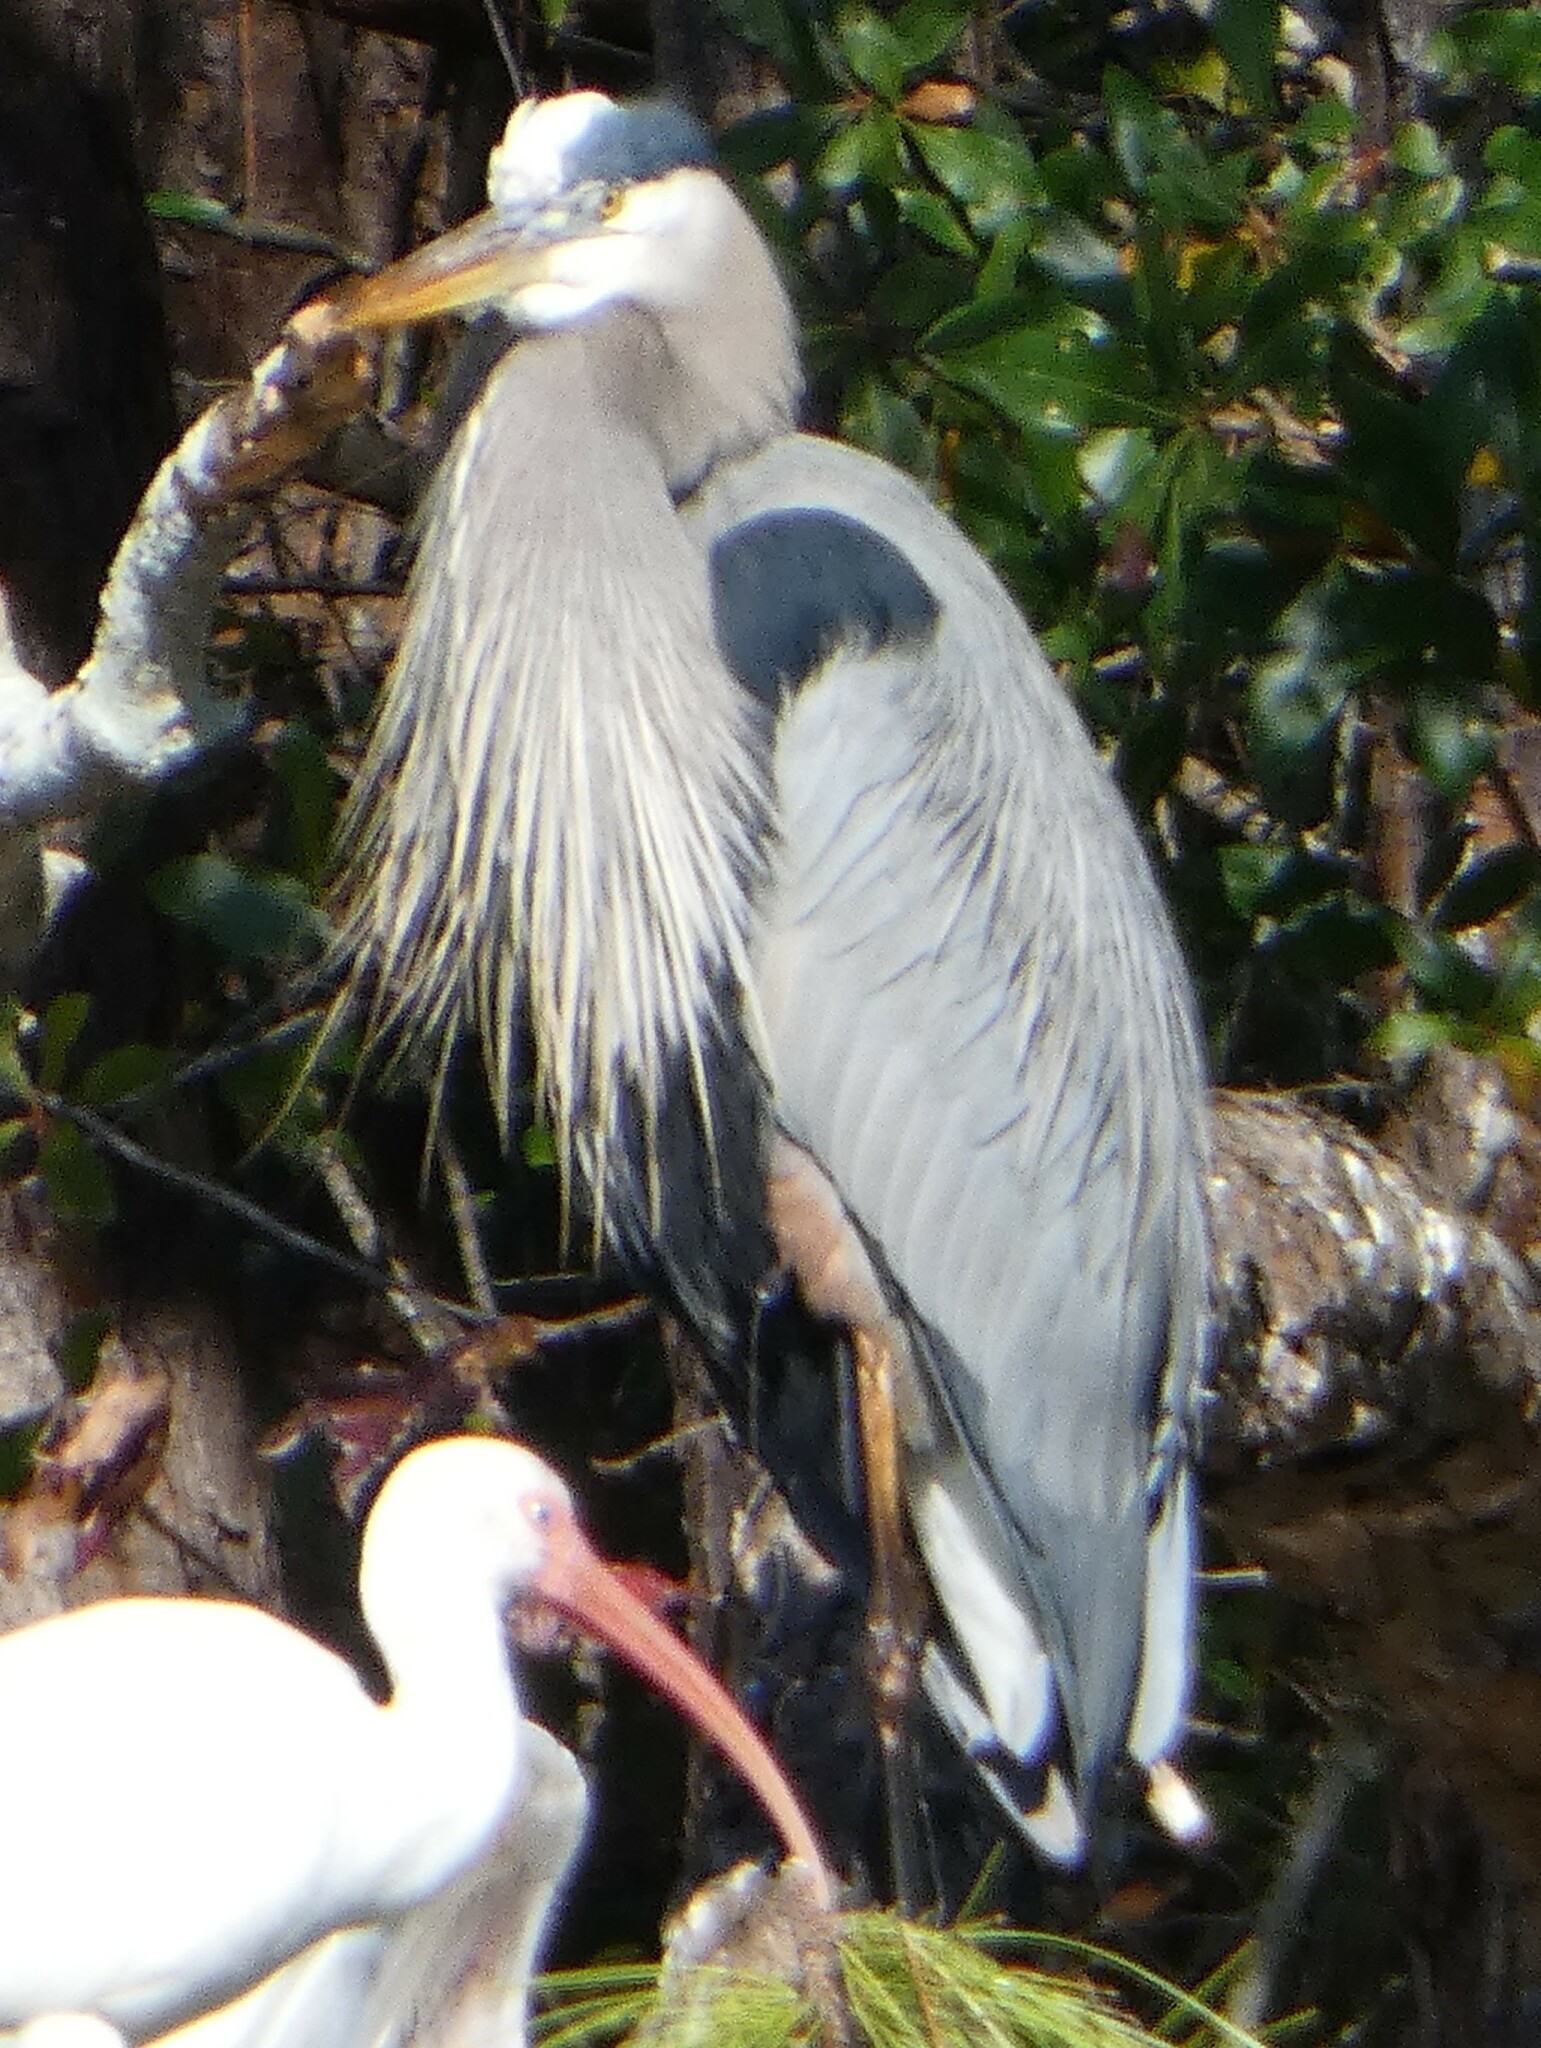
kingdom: Animalia
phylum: Chordata
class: Aves
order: Pelecaniformes
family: Ardeidae
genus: Ardea
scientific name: Ardea herodias
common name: Great blue heron
